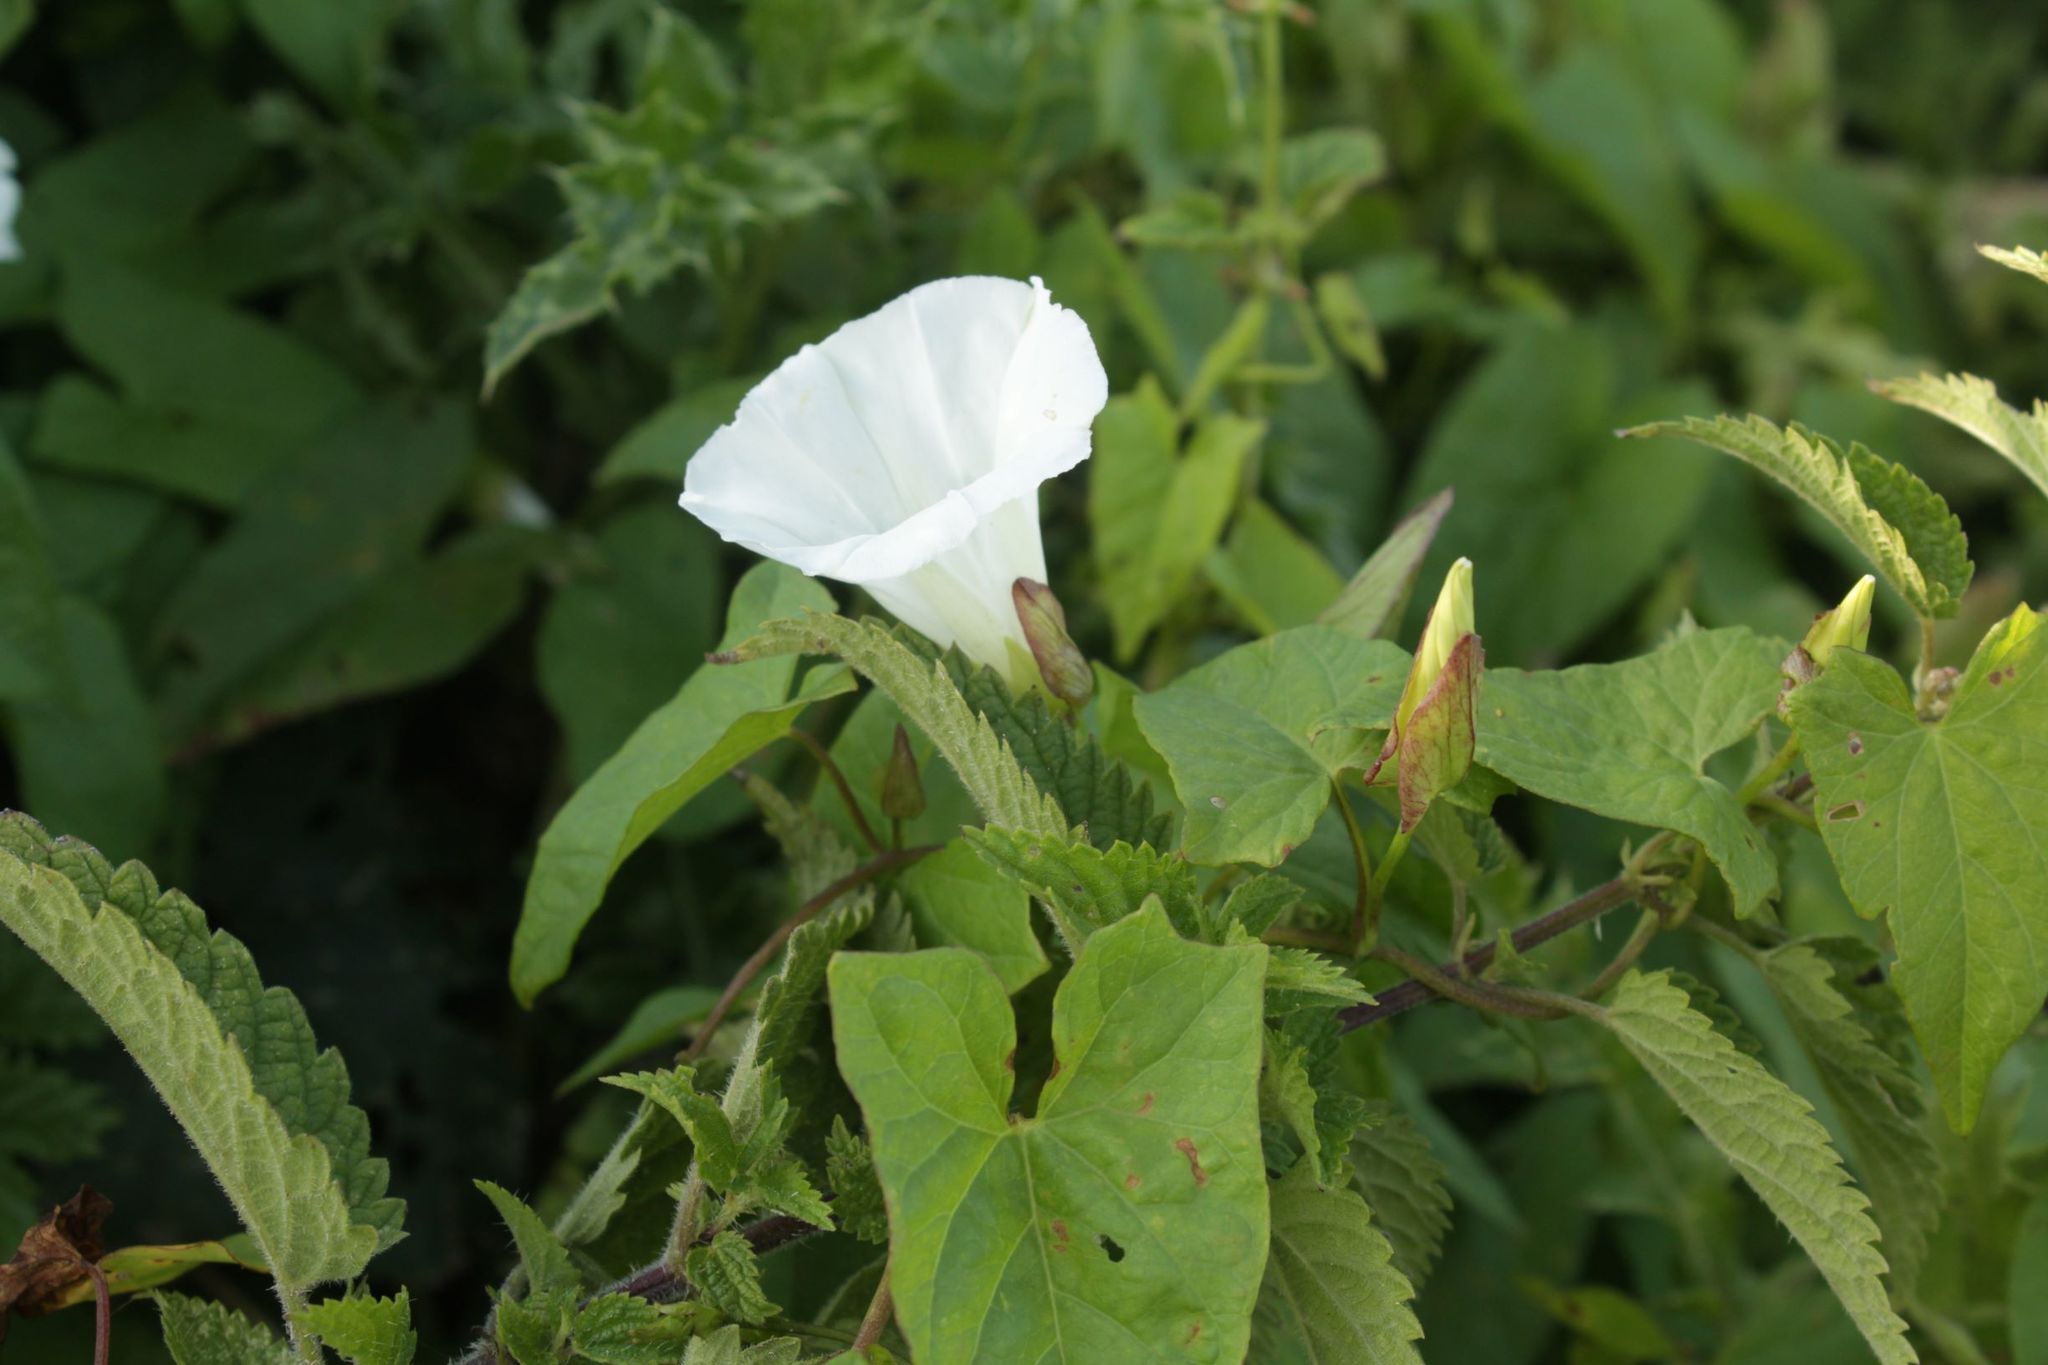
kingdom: Plantae
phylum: Tracheophyta
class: Magnoliopsida
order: Solanales
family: Convolvulaceae
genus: Calystegia
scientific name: Calystegia sepium
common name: Hedge bindweed
